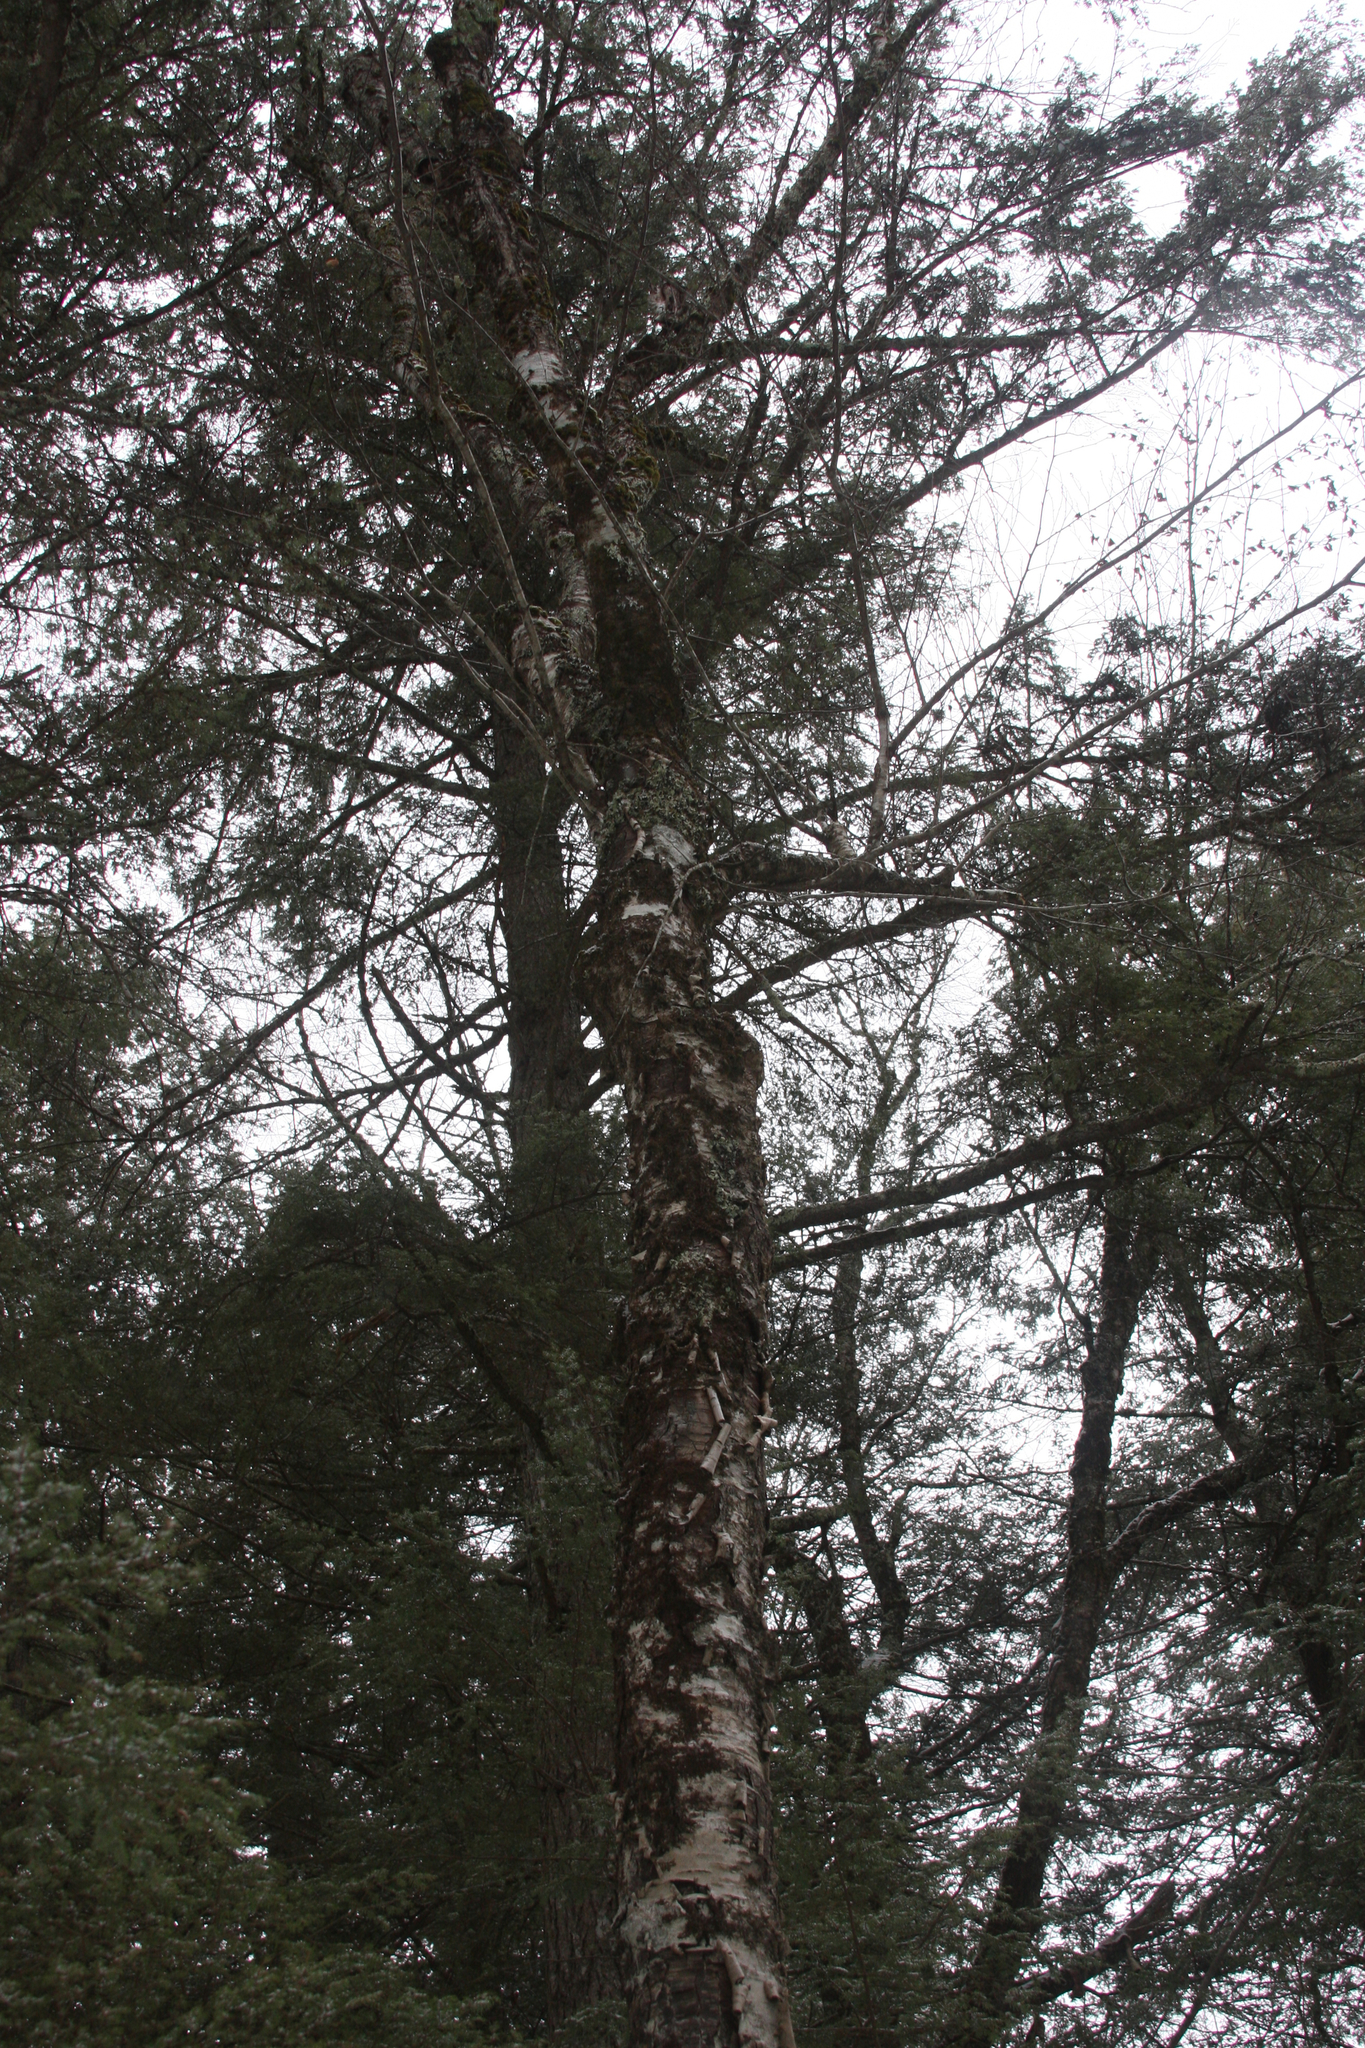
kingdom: Plantae
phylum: Tracheophyta
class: Magnoliopsida
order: Fagales
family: Betulaceae
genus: Betula
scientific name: Betula alleghaniensis
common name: Yellow birch
